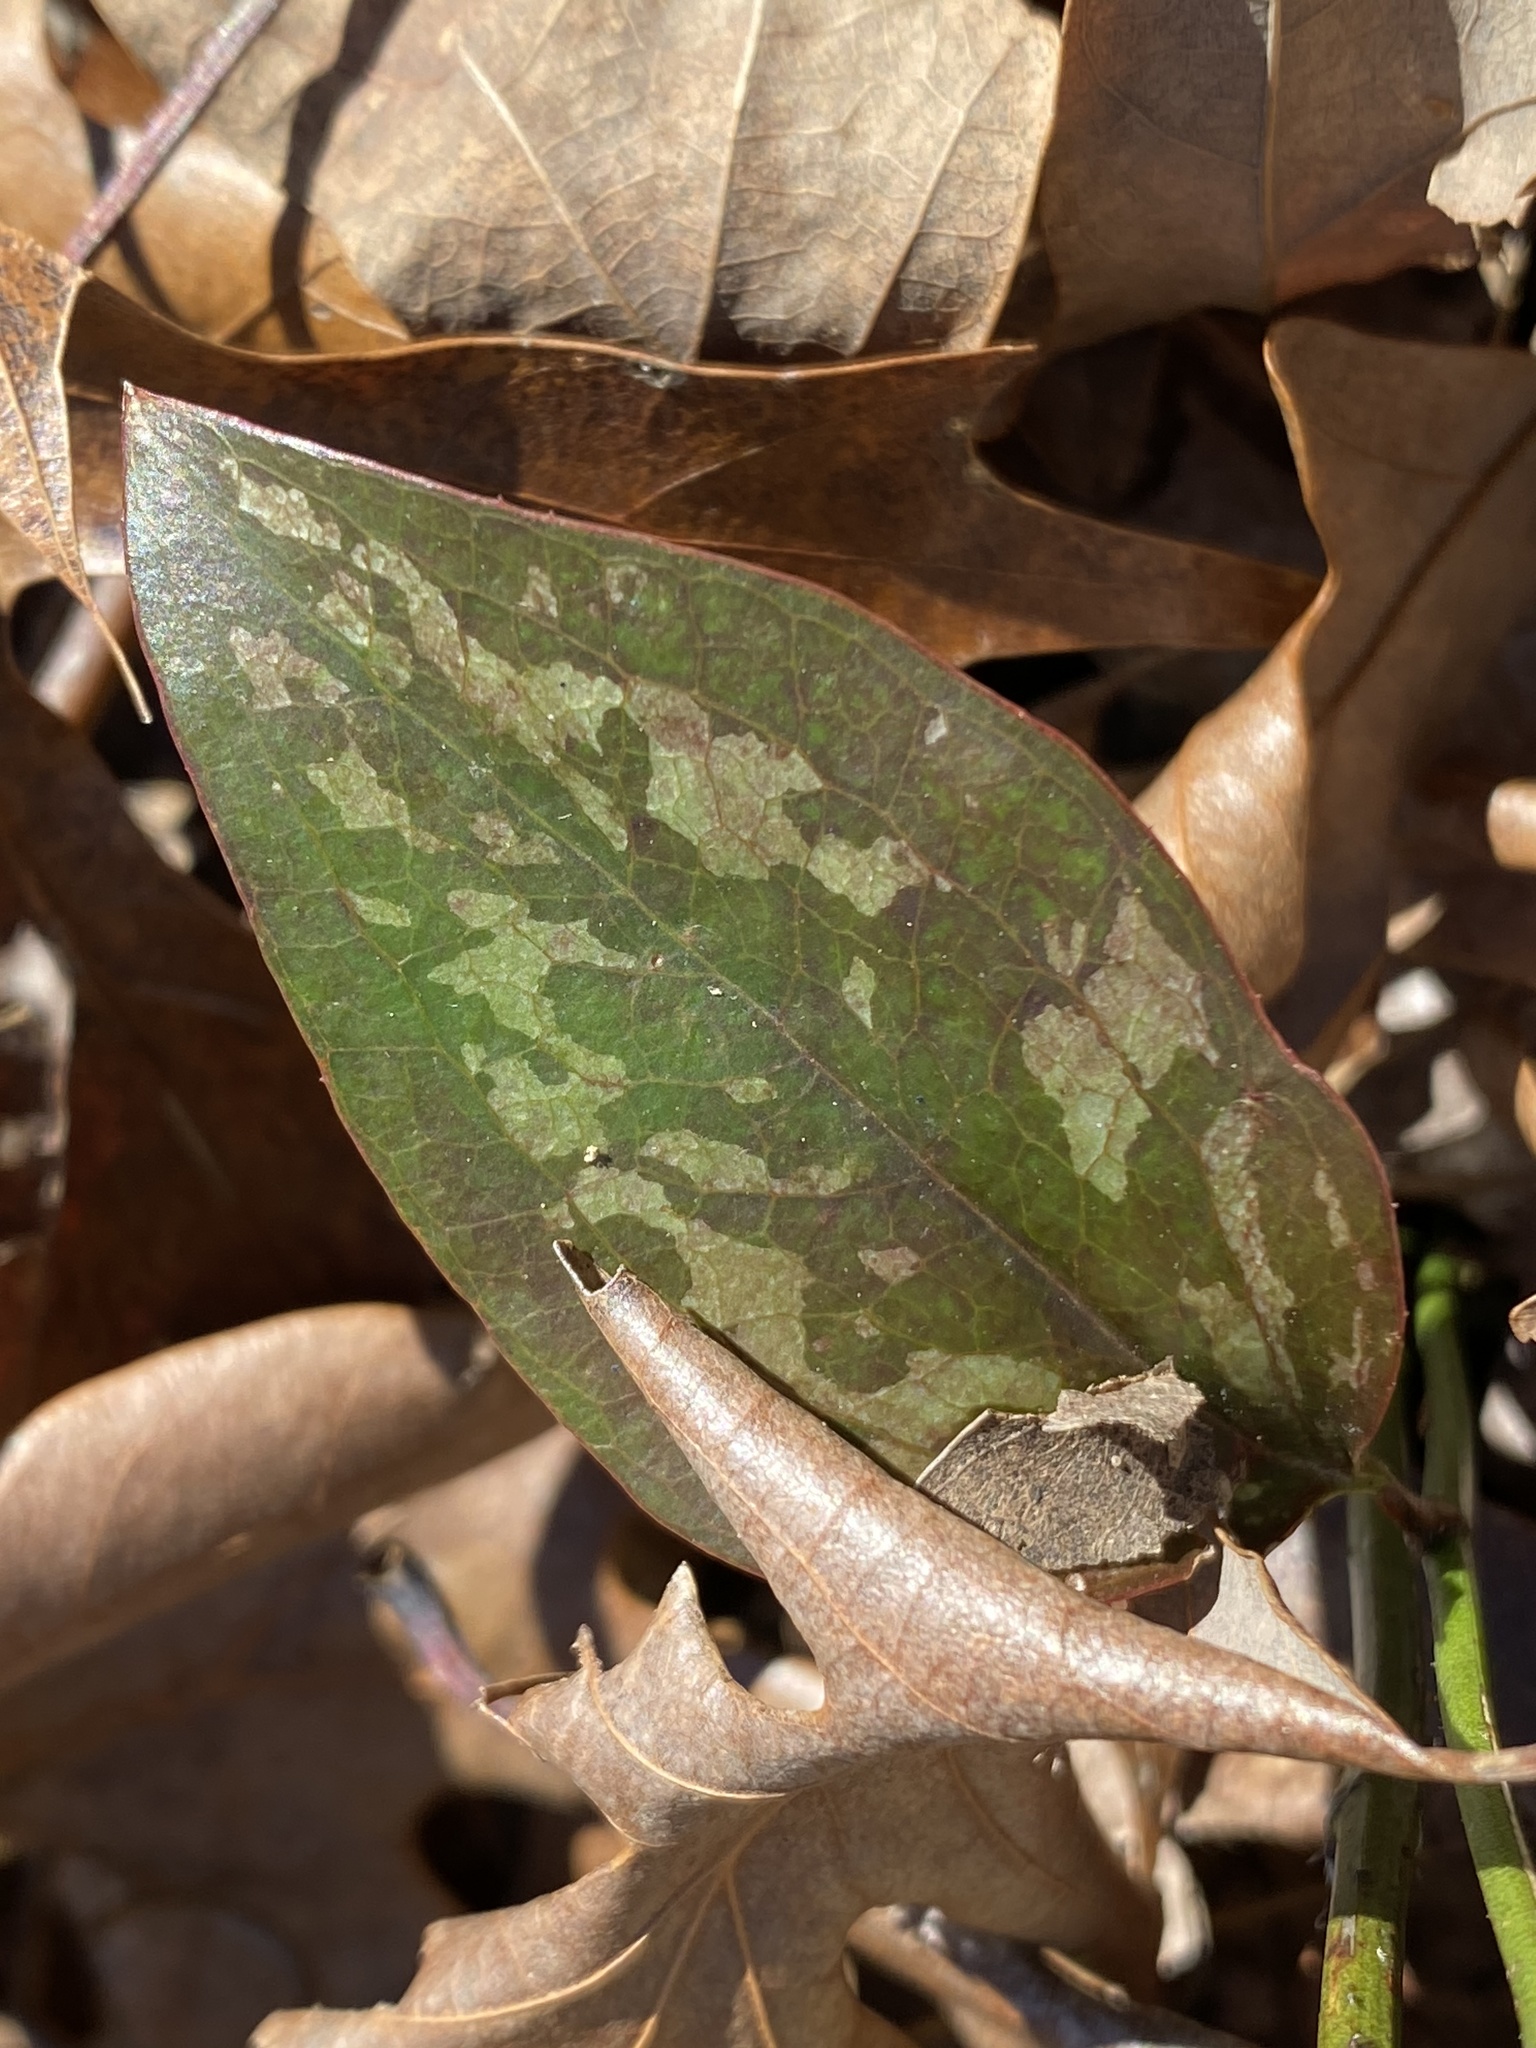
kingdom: Plantae
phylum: Tracheophyta
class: Liliopsida
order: Liliales
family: Smilacaceae
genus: Smilax
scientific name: Smilax glauca
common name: Cat greenbrier
